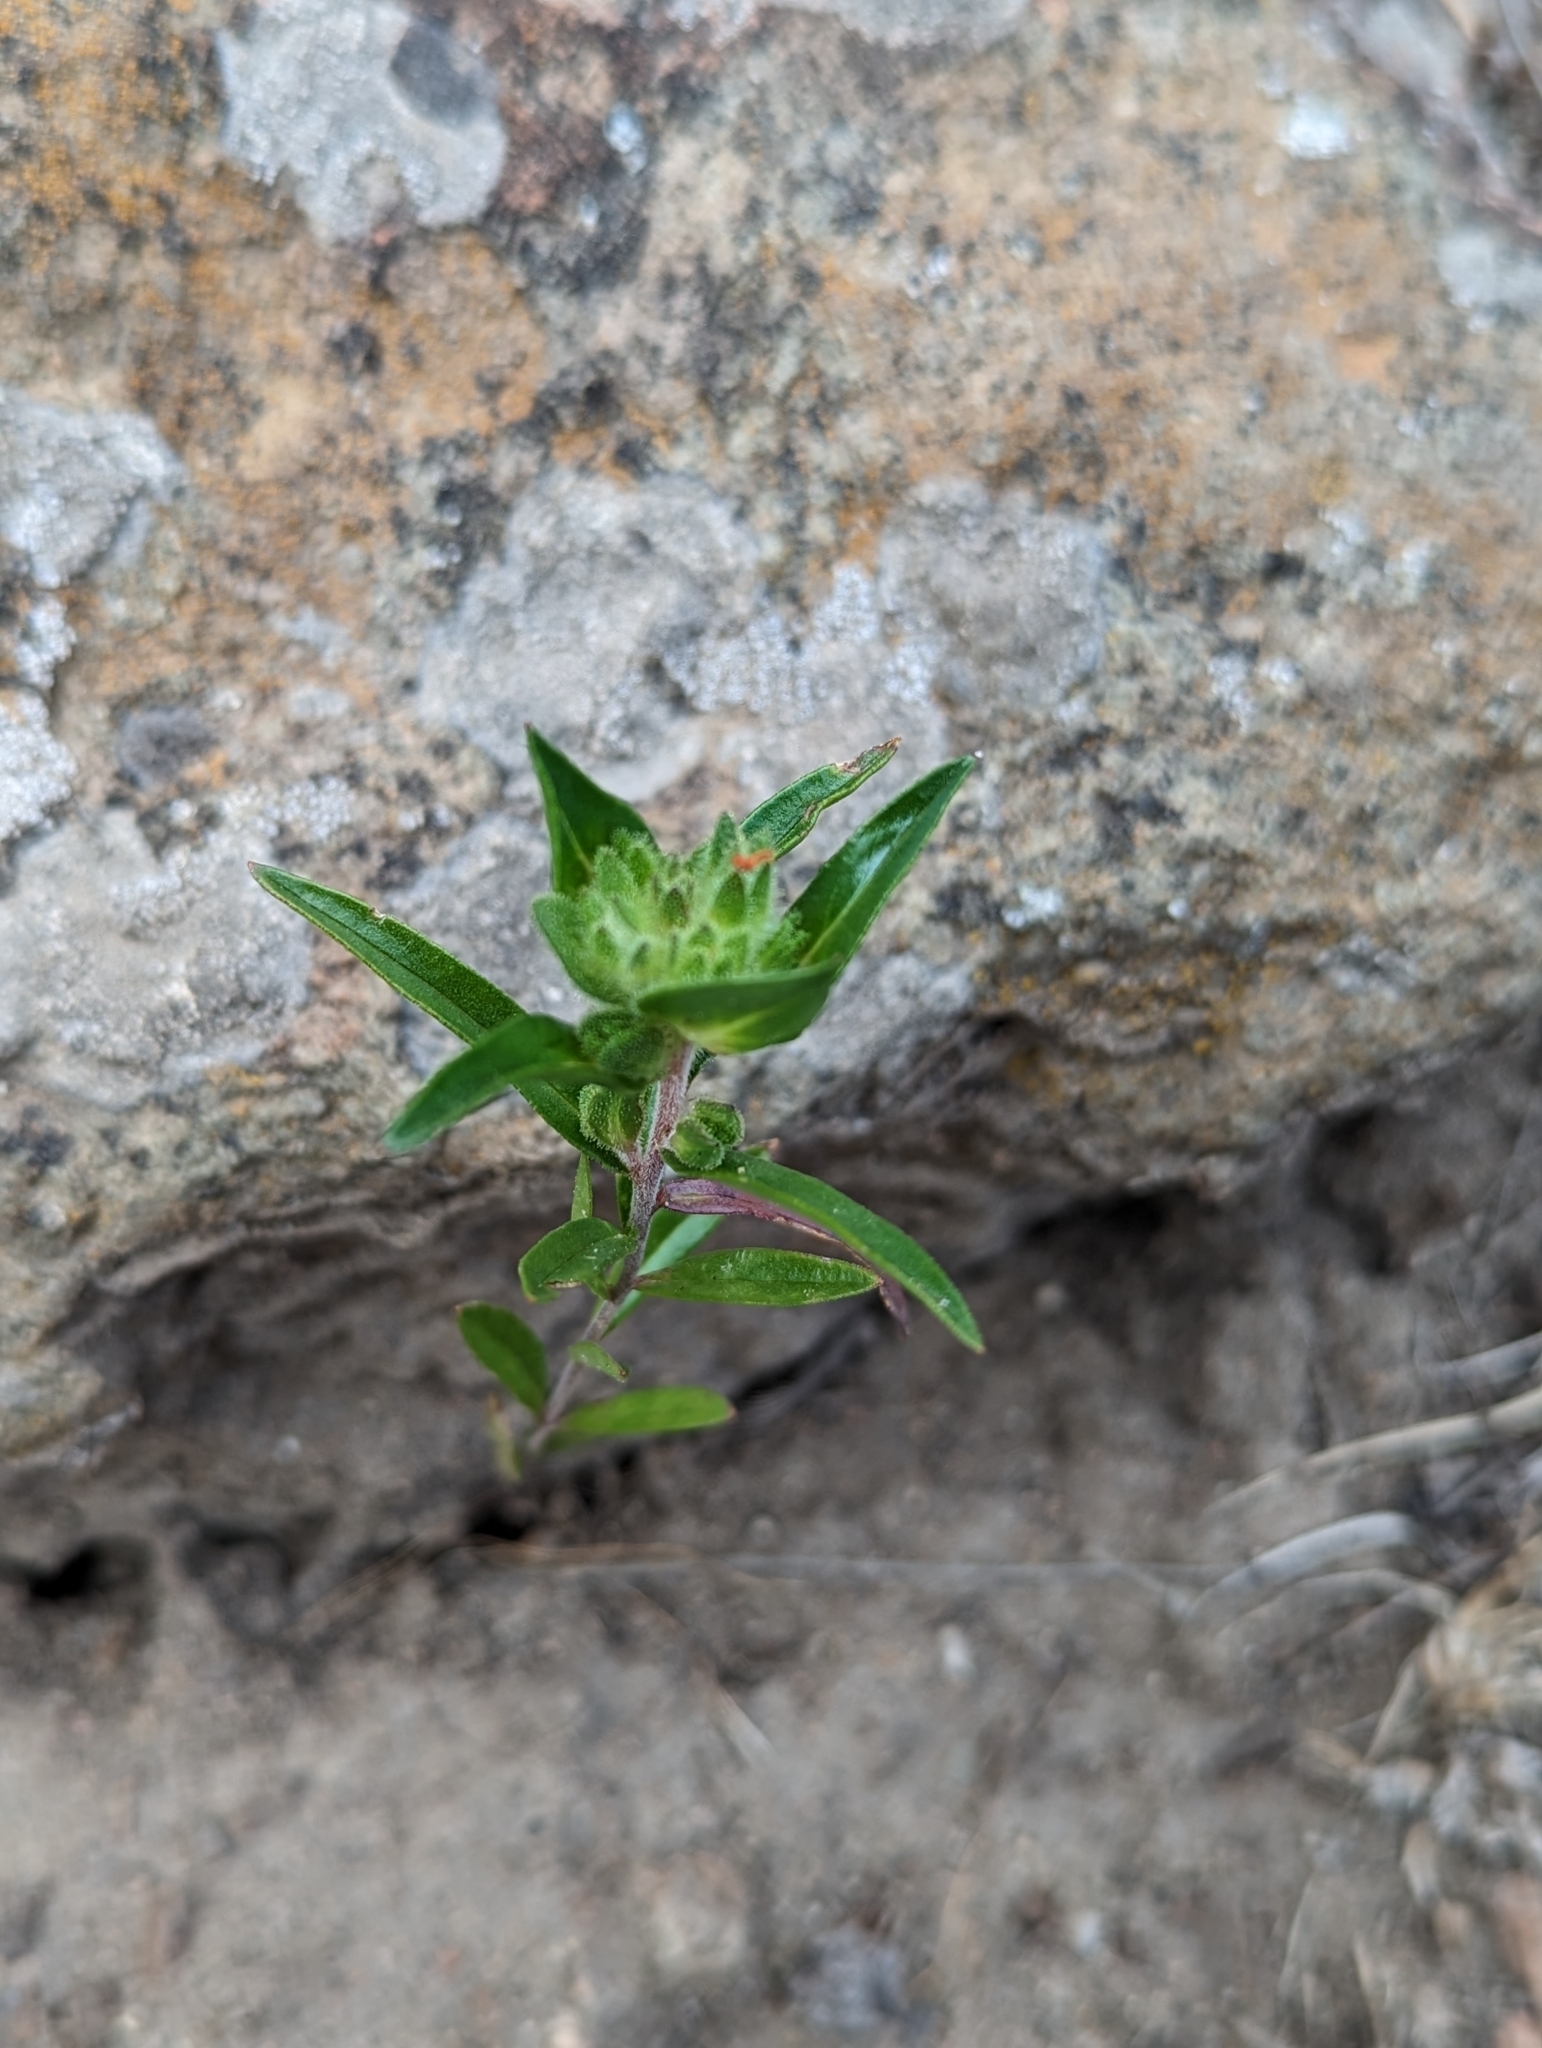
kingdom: Plantae
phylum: Tracheophyta
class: Magnoliopsida
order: Ericales
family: Polemoniaceae
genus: Collomia
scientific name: Collomia grandiflora
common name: California strawflower
